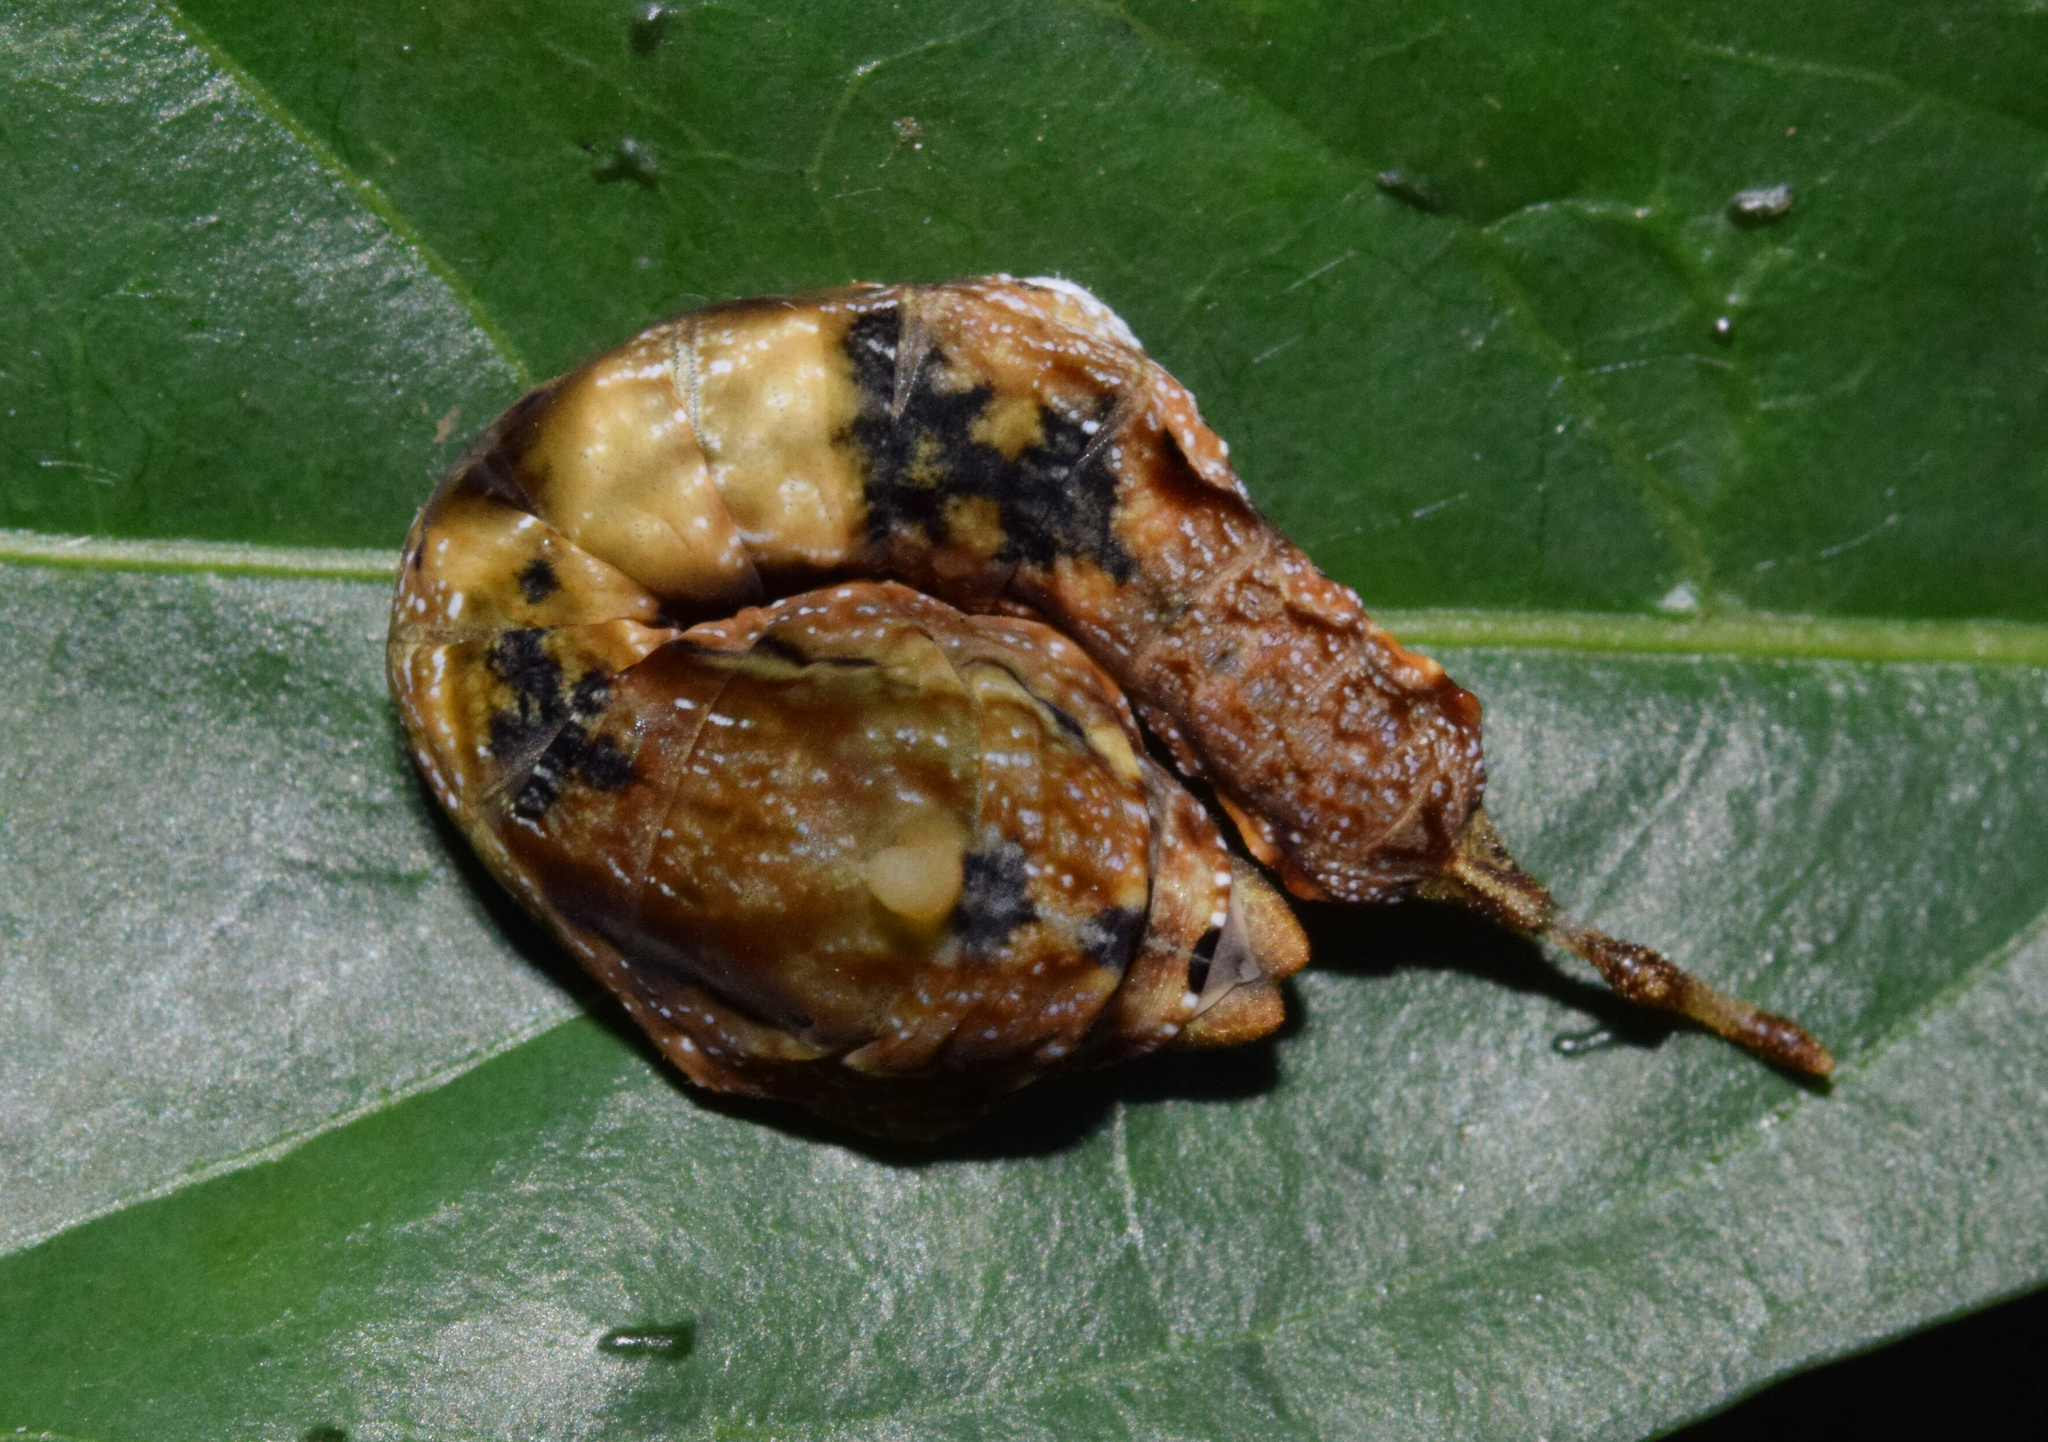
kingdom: Animalia
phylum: Arthropoda
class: Insecta
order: Lepidoptera
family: Drepanidae
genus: Negera
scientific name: Negera natalensis
